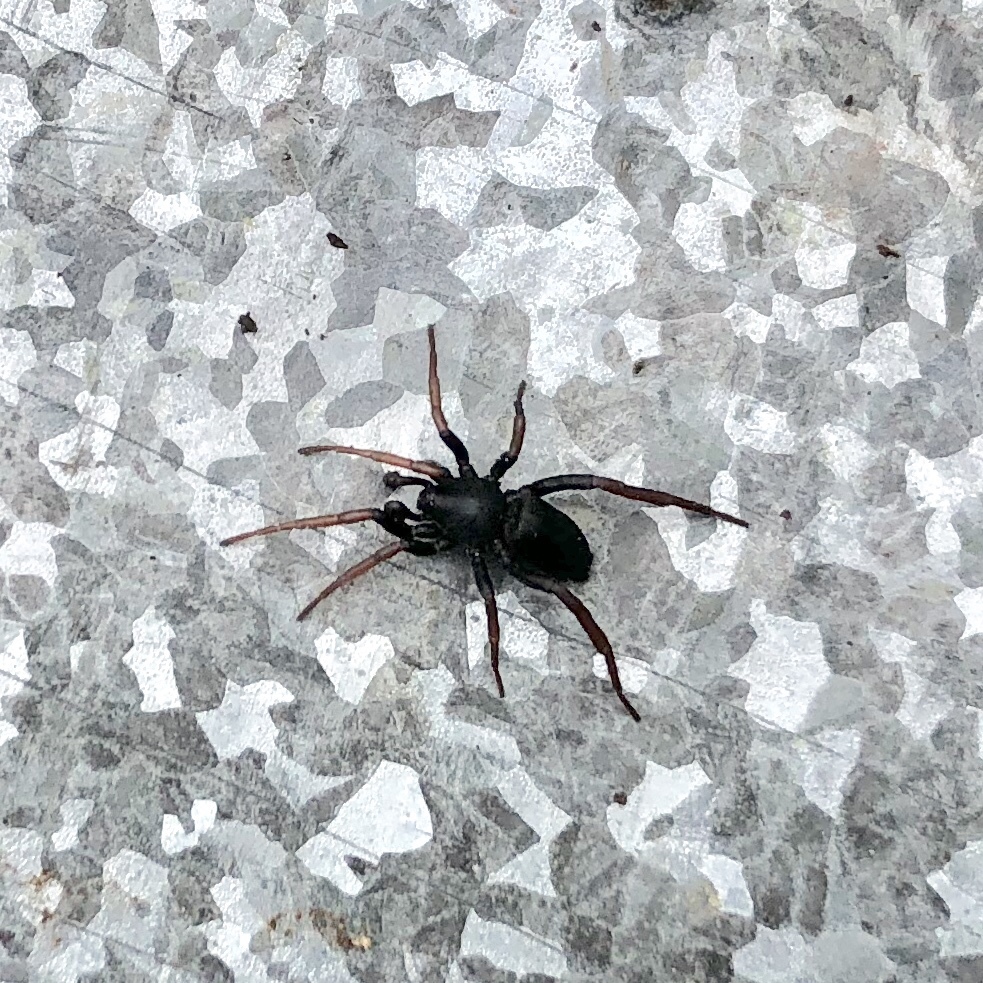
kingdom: Animalia
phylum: Arthropoda
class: Arachnida
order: Araneae
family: Gnaphosidae
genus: Trachyzelotes
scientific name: Trachyzelotes pedestris
